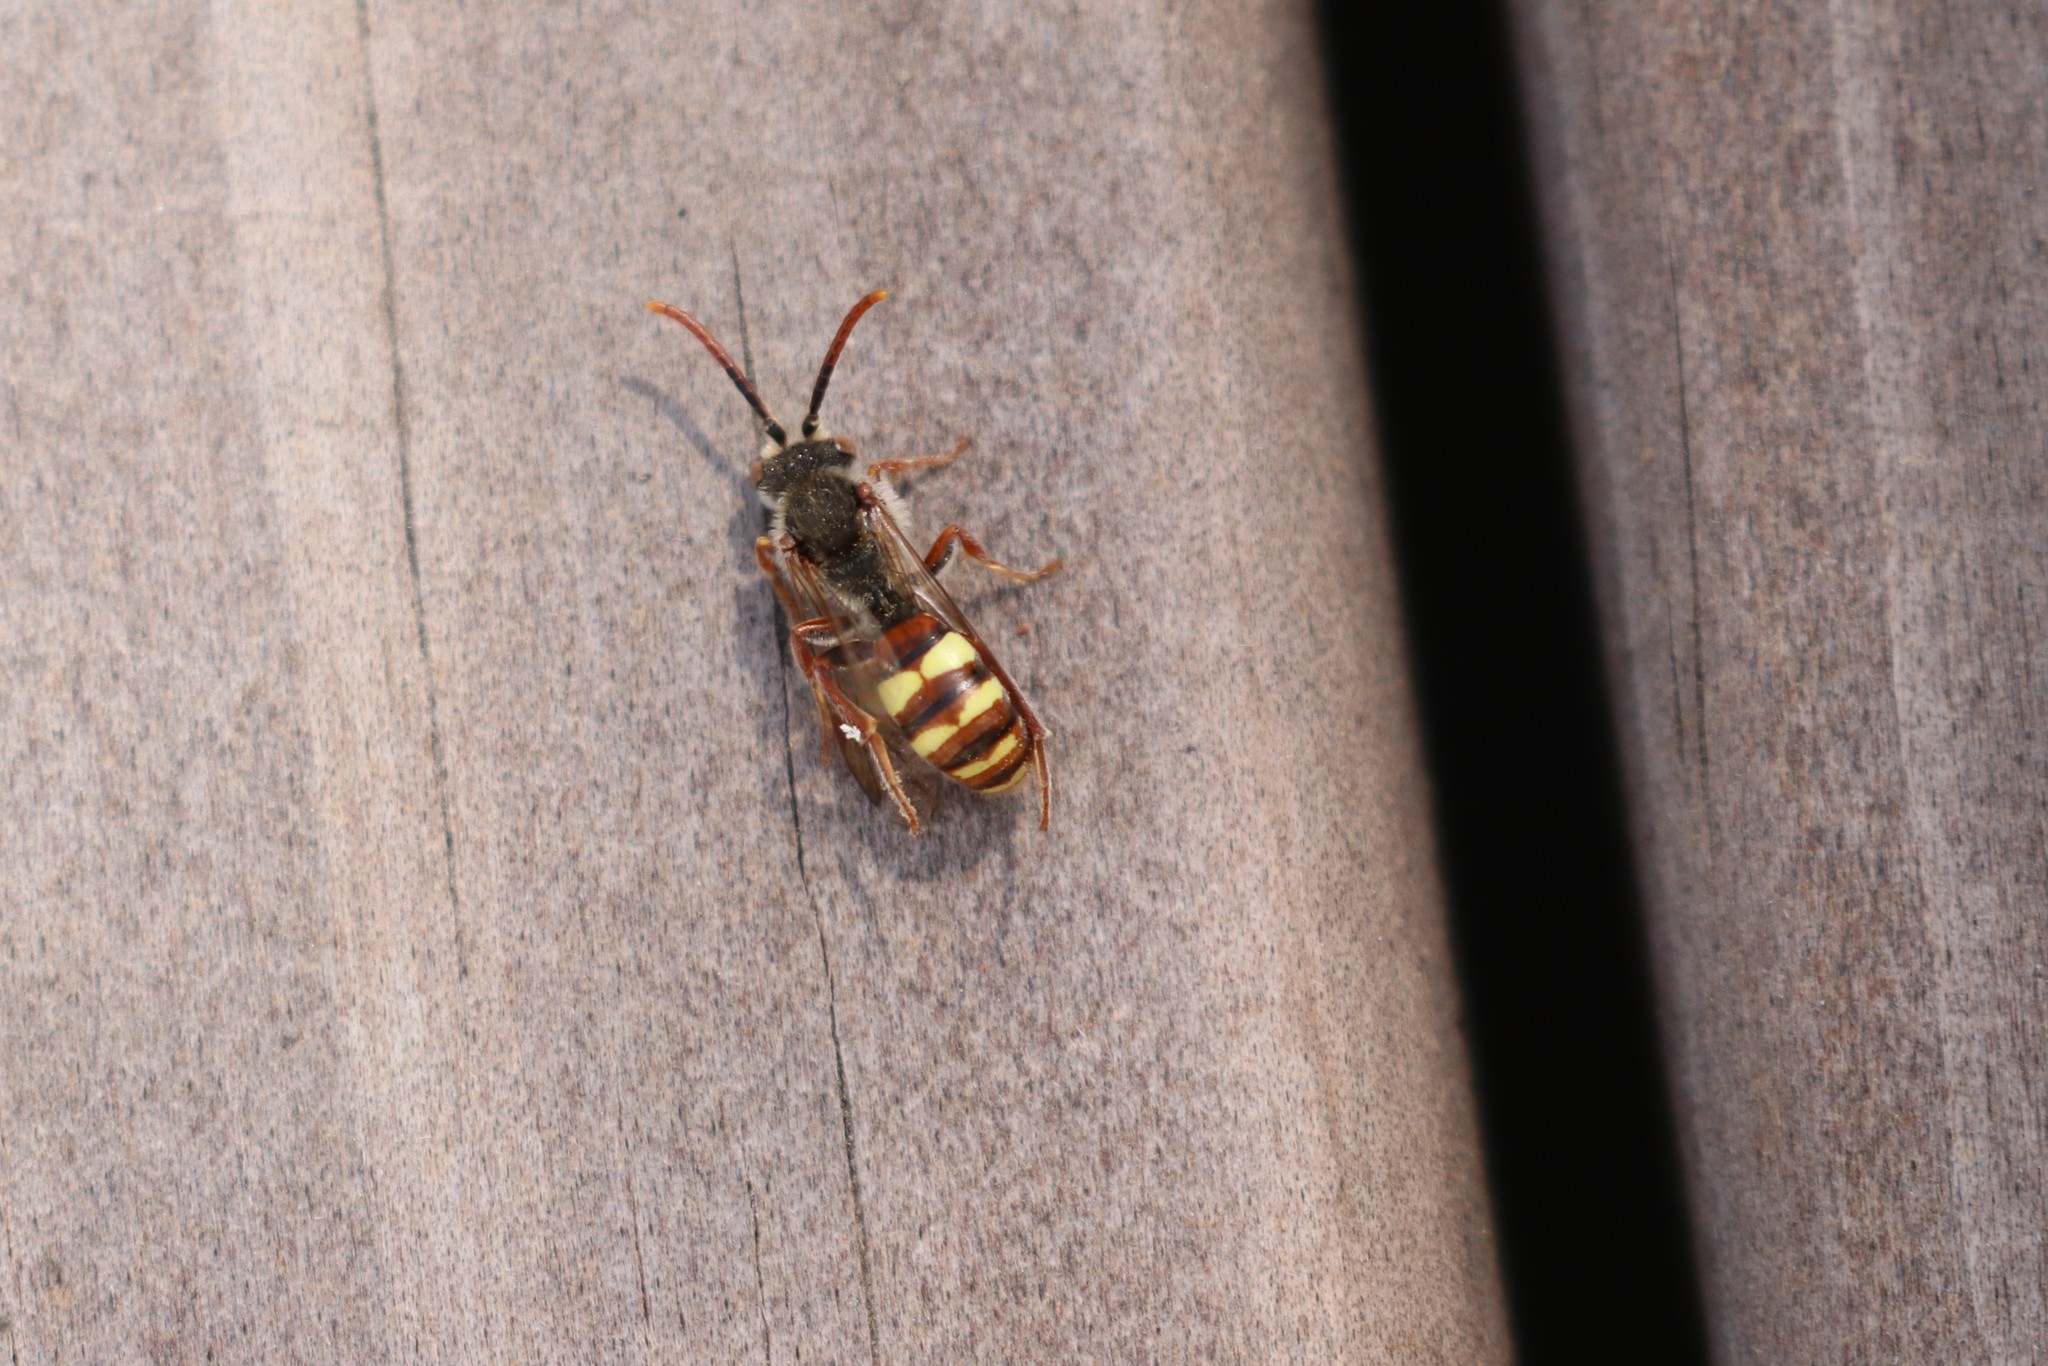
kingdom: Animalia
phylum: Arthropoda
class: Insecta
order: Hymenoptera
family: Apidae
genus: Nomada
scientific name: Nomada
